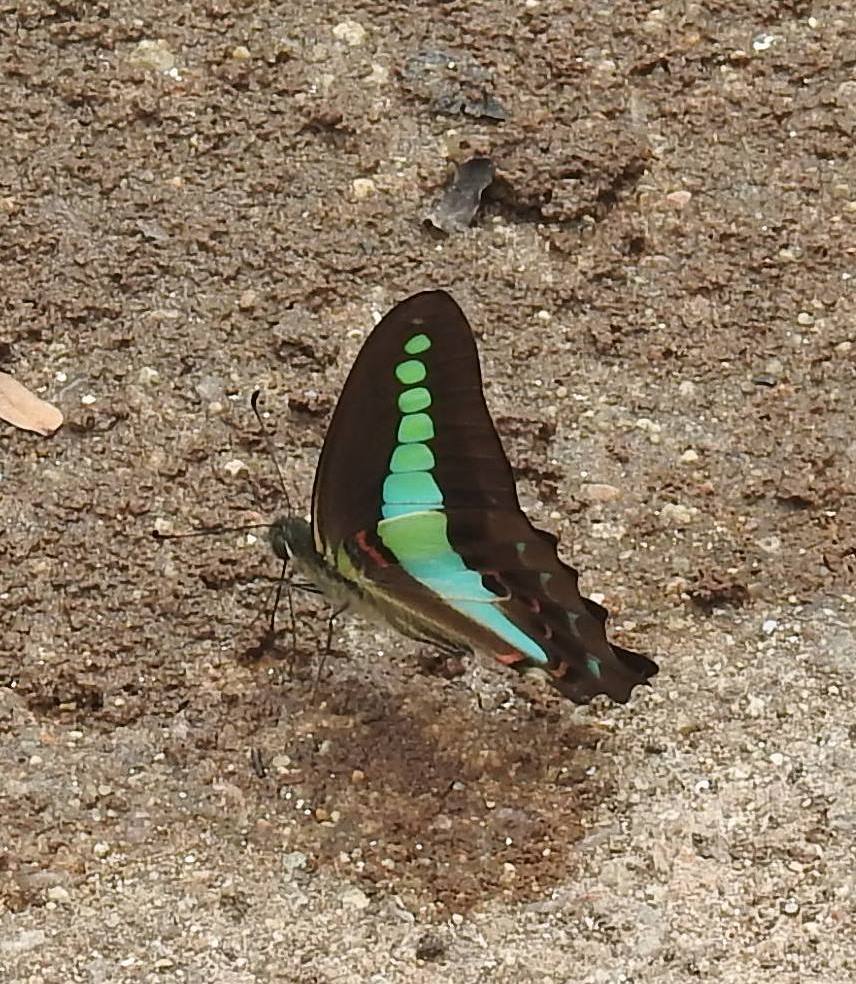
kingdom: Animalia
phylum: Arthropoda
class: Insecta
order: Lepidoptera
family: Papilionidae
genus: Graphium
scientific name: Graphium
